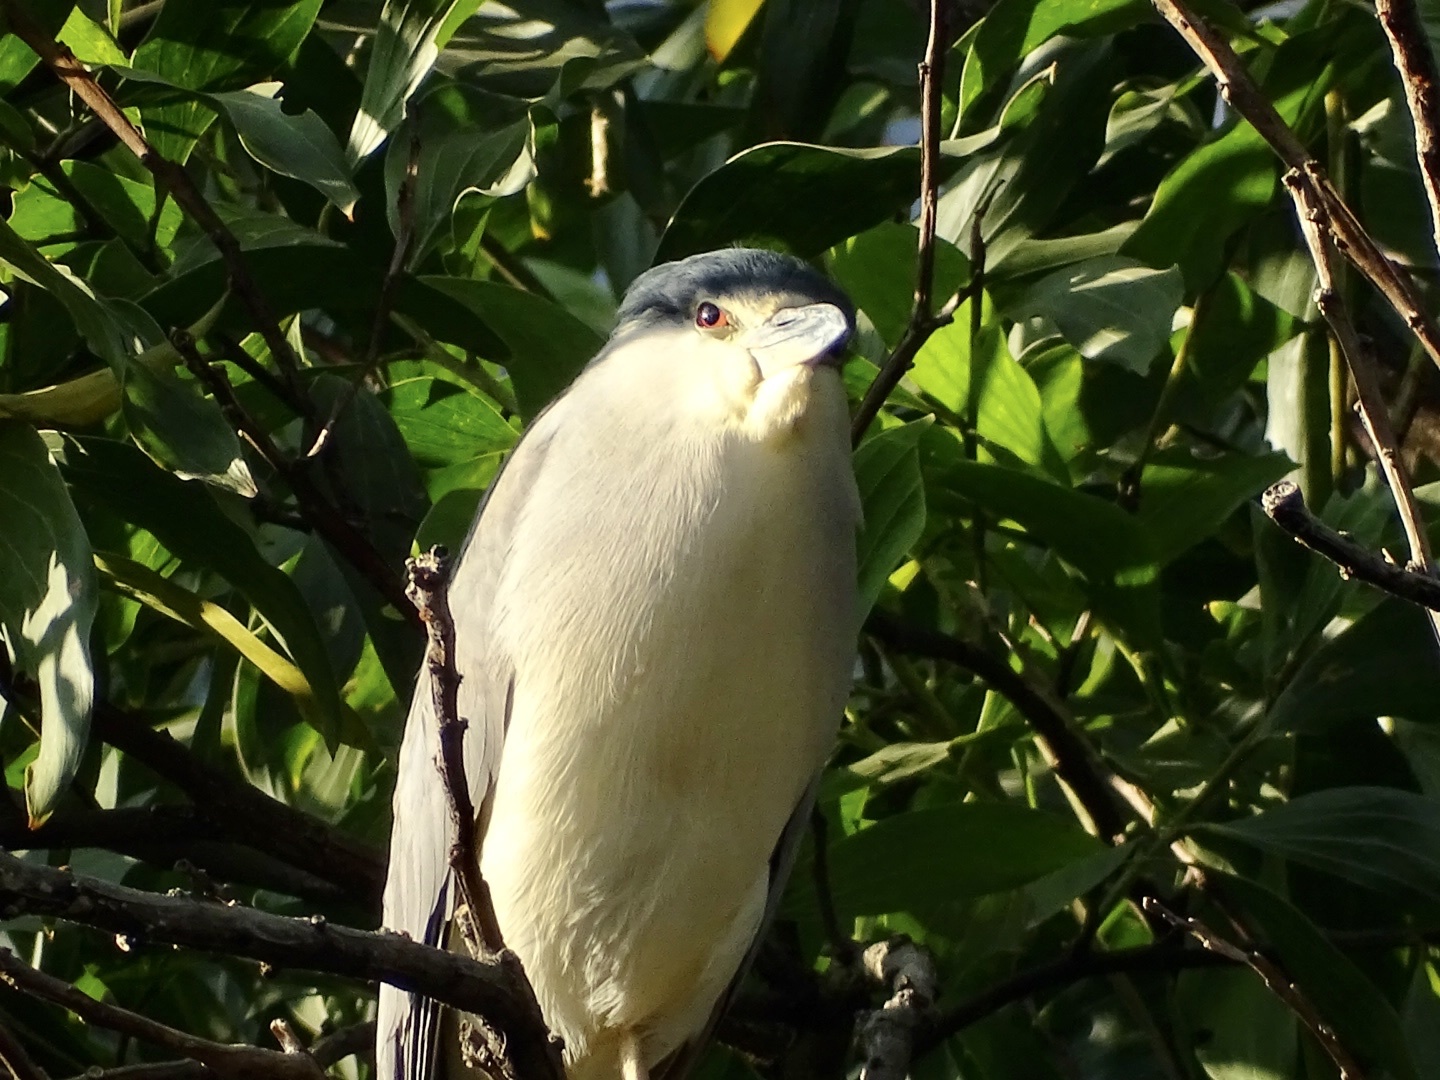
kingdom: Animalia
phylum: Chordata
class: Aves
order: Pelecaniformes
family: Ardeidae
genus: Nycticorax
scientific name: Nycticorax nycticorax
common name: Black-crowned night heron
